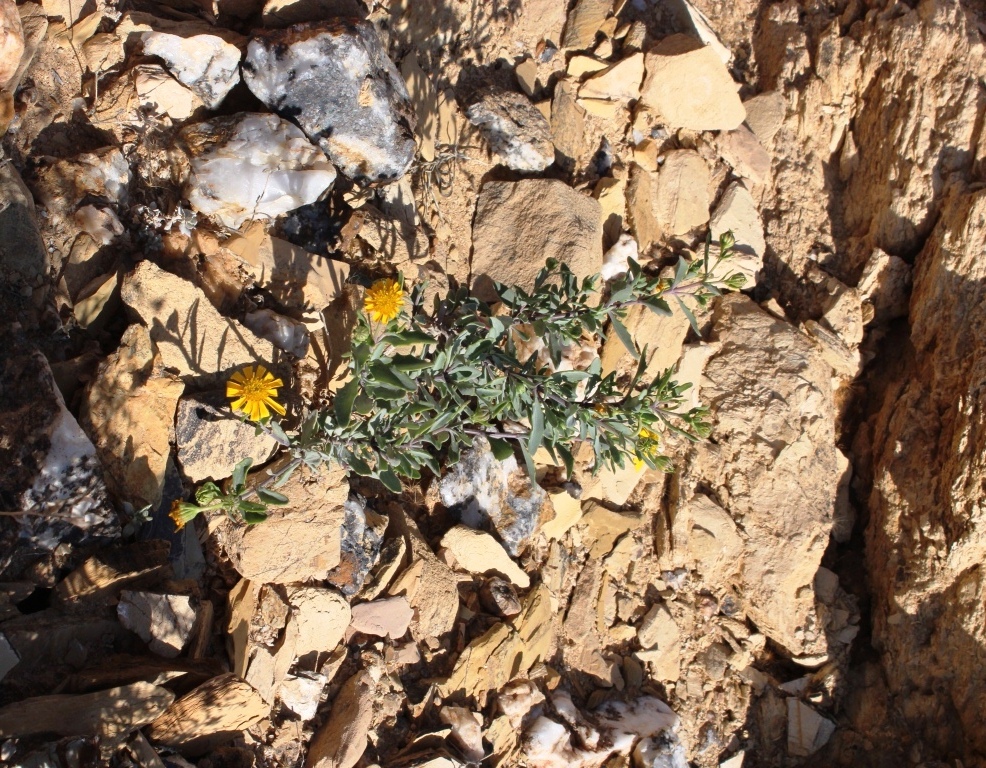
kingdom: Plantae
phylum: Tracheophyta
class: Magnoliopsida
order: Asterales
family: Asteraceae
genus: Osteospermum
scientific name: Osteospermum sinuatum
